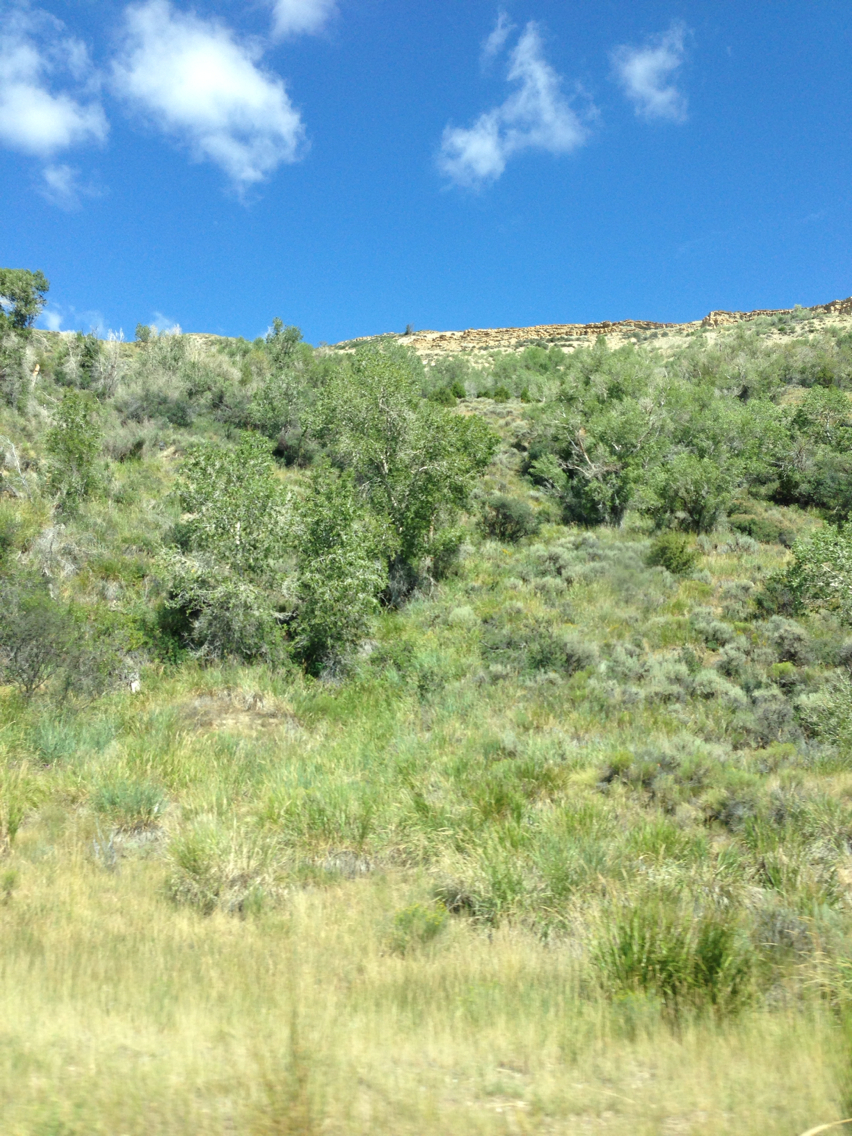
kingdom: Plantae
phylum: Tracheophyta
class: Magnoliopsida
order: Malpighiales
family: Salicaceae
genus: Populus
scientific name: Populus tremuloides
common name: Quaking aspen
